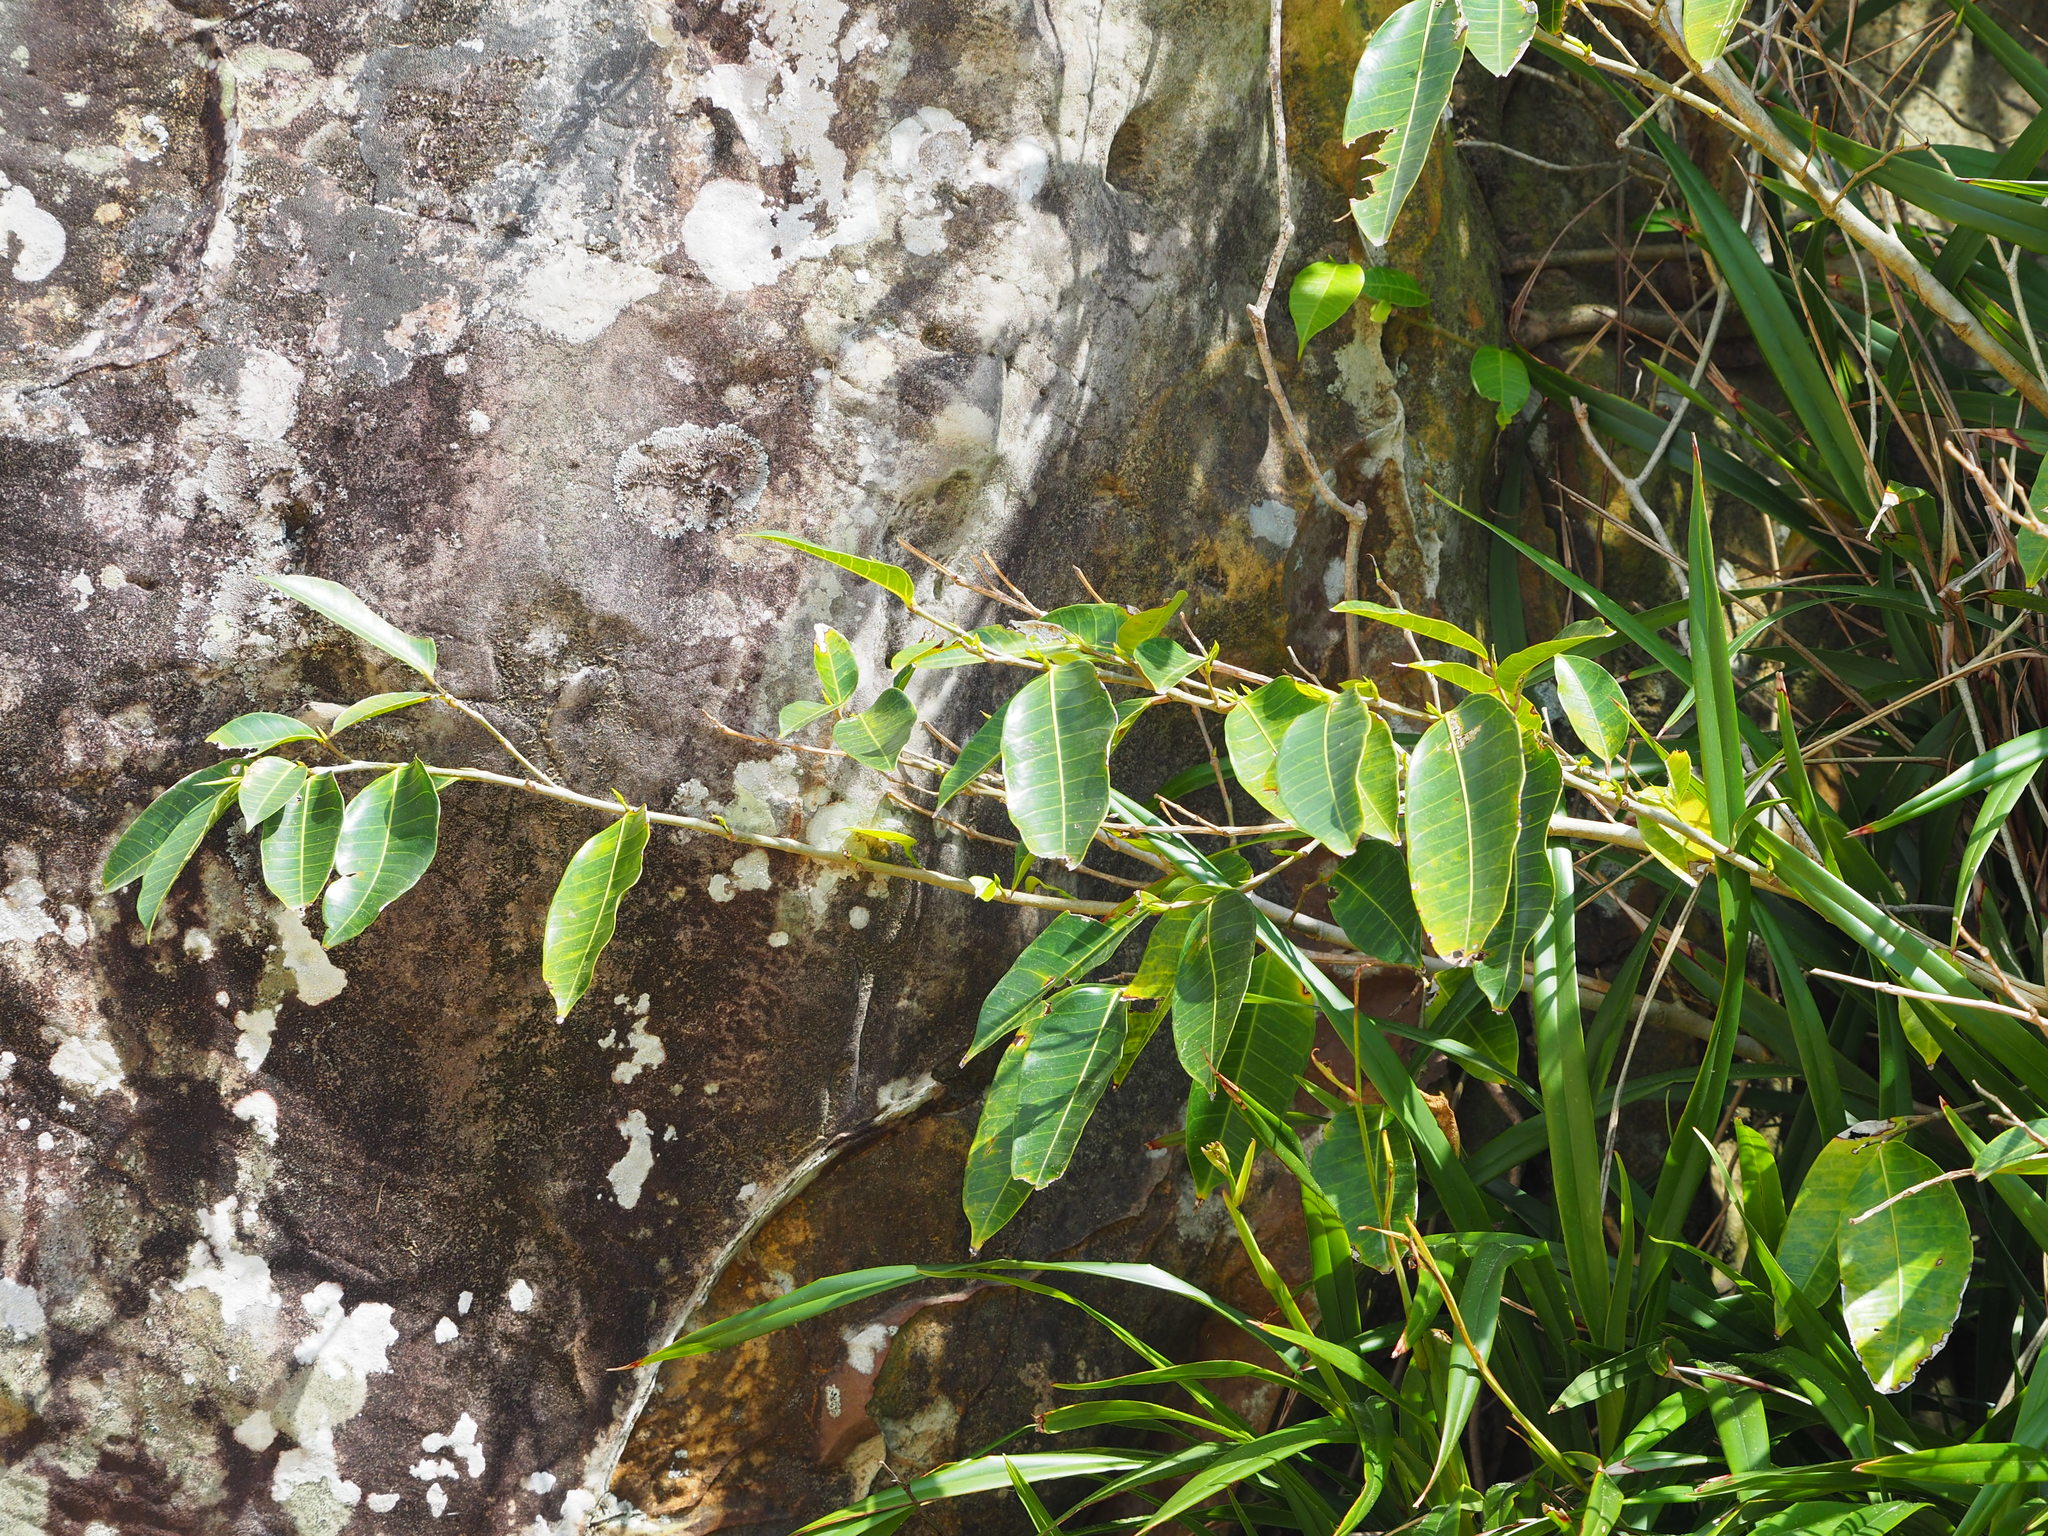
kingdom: Plantae
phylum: Tracheophyta
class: Magnoliopsida
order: Rosales
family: Moraceae
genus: Ficus
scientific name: Ficus virgata
